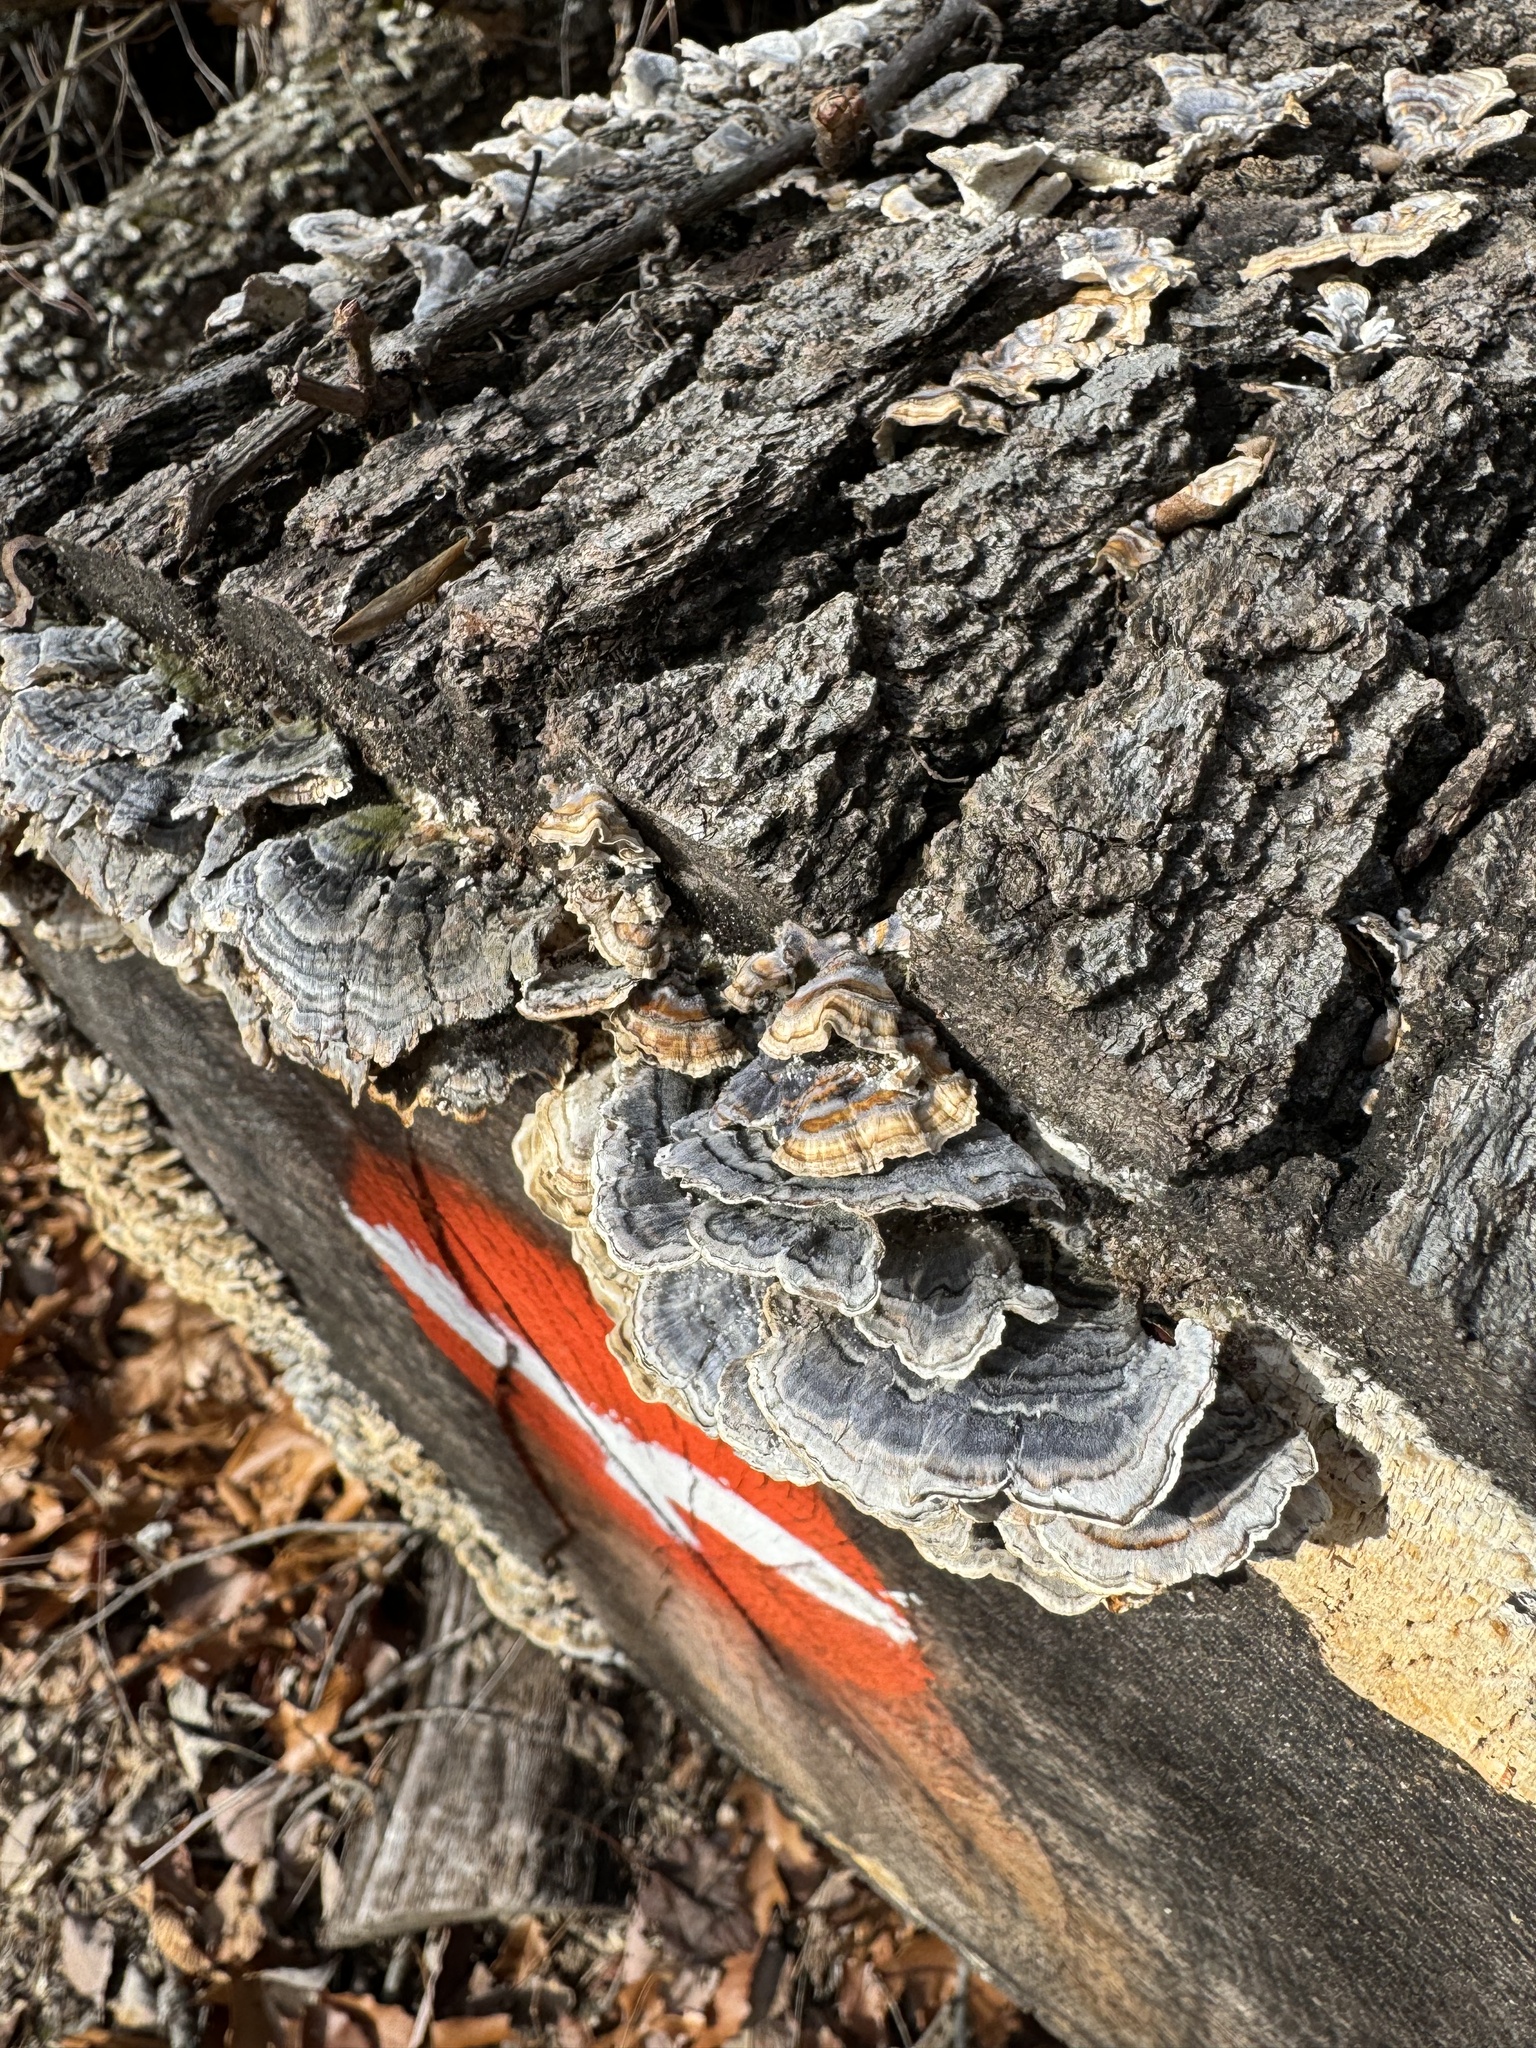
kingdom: Fungi
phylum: Basidiomycota
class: Agaricomycetes
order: Polyporales
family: Polyporaceae
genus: Trametes
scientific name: Trametes versicolor
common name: Turkeytail
